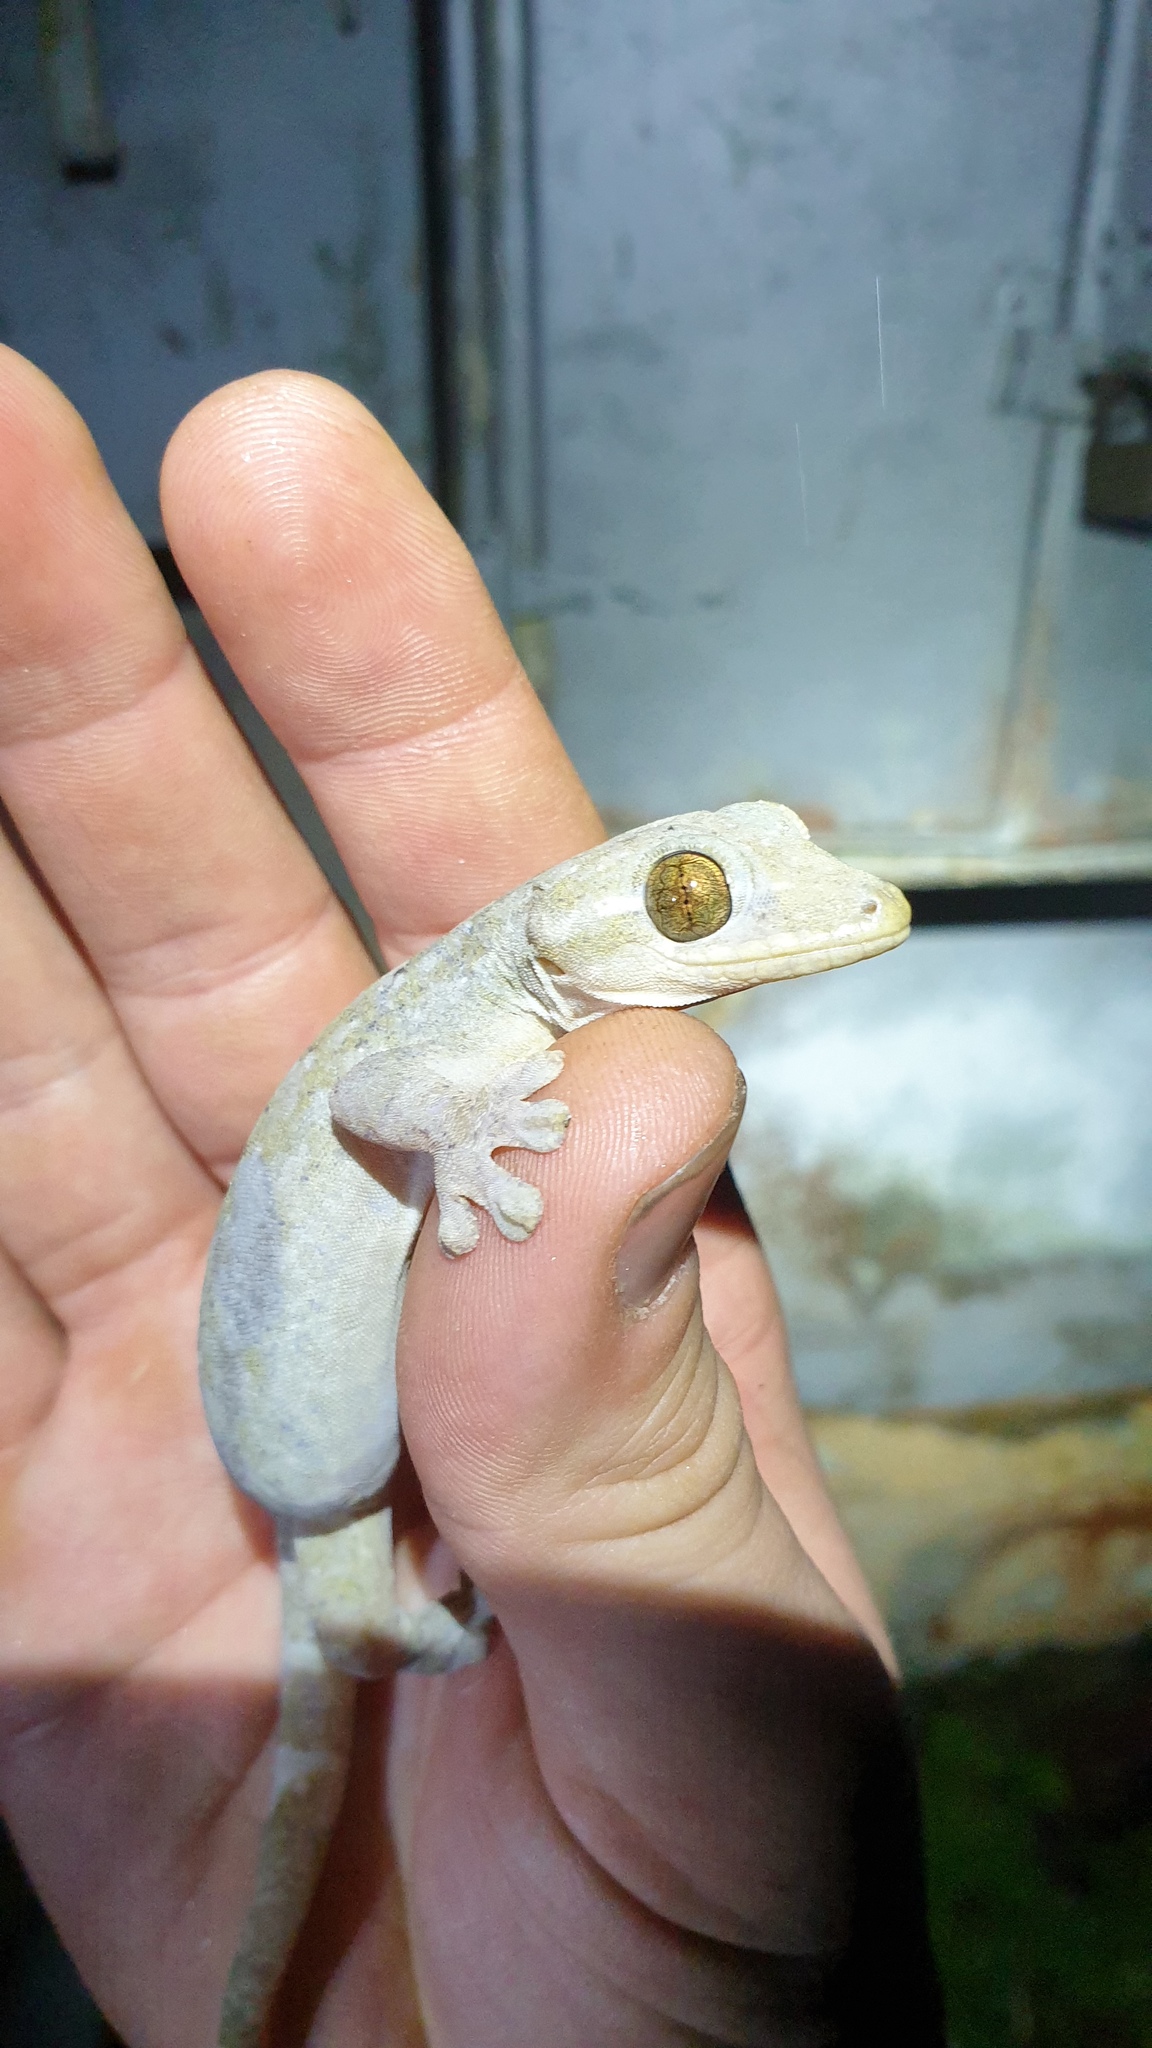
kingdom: Animalia
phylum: Chordata
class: Squamata
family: Phyllodactylidae
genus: Thecadactylus
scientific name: Thecadactylus rapicauda
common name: Turnip-tailed gecko
